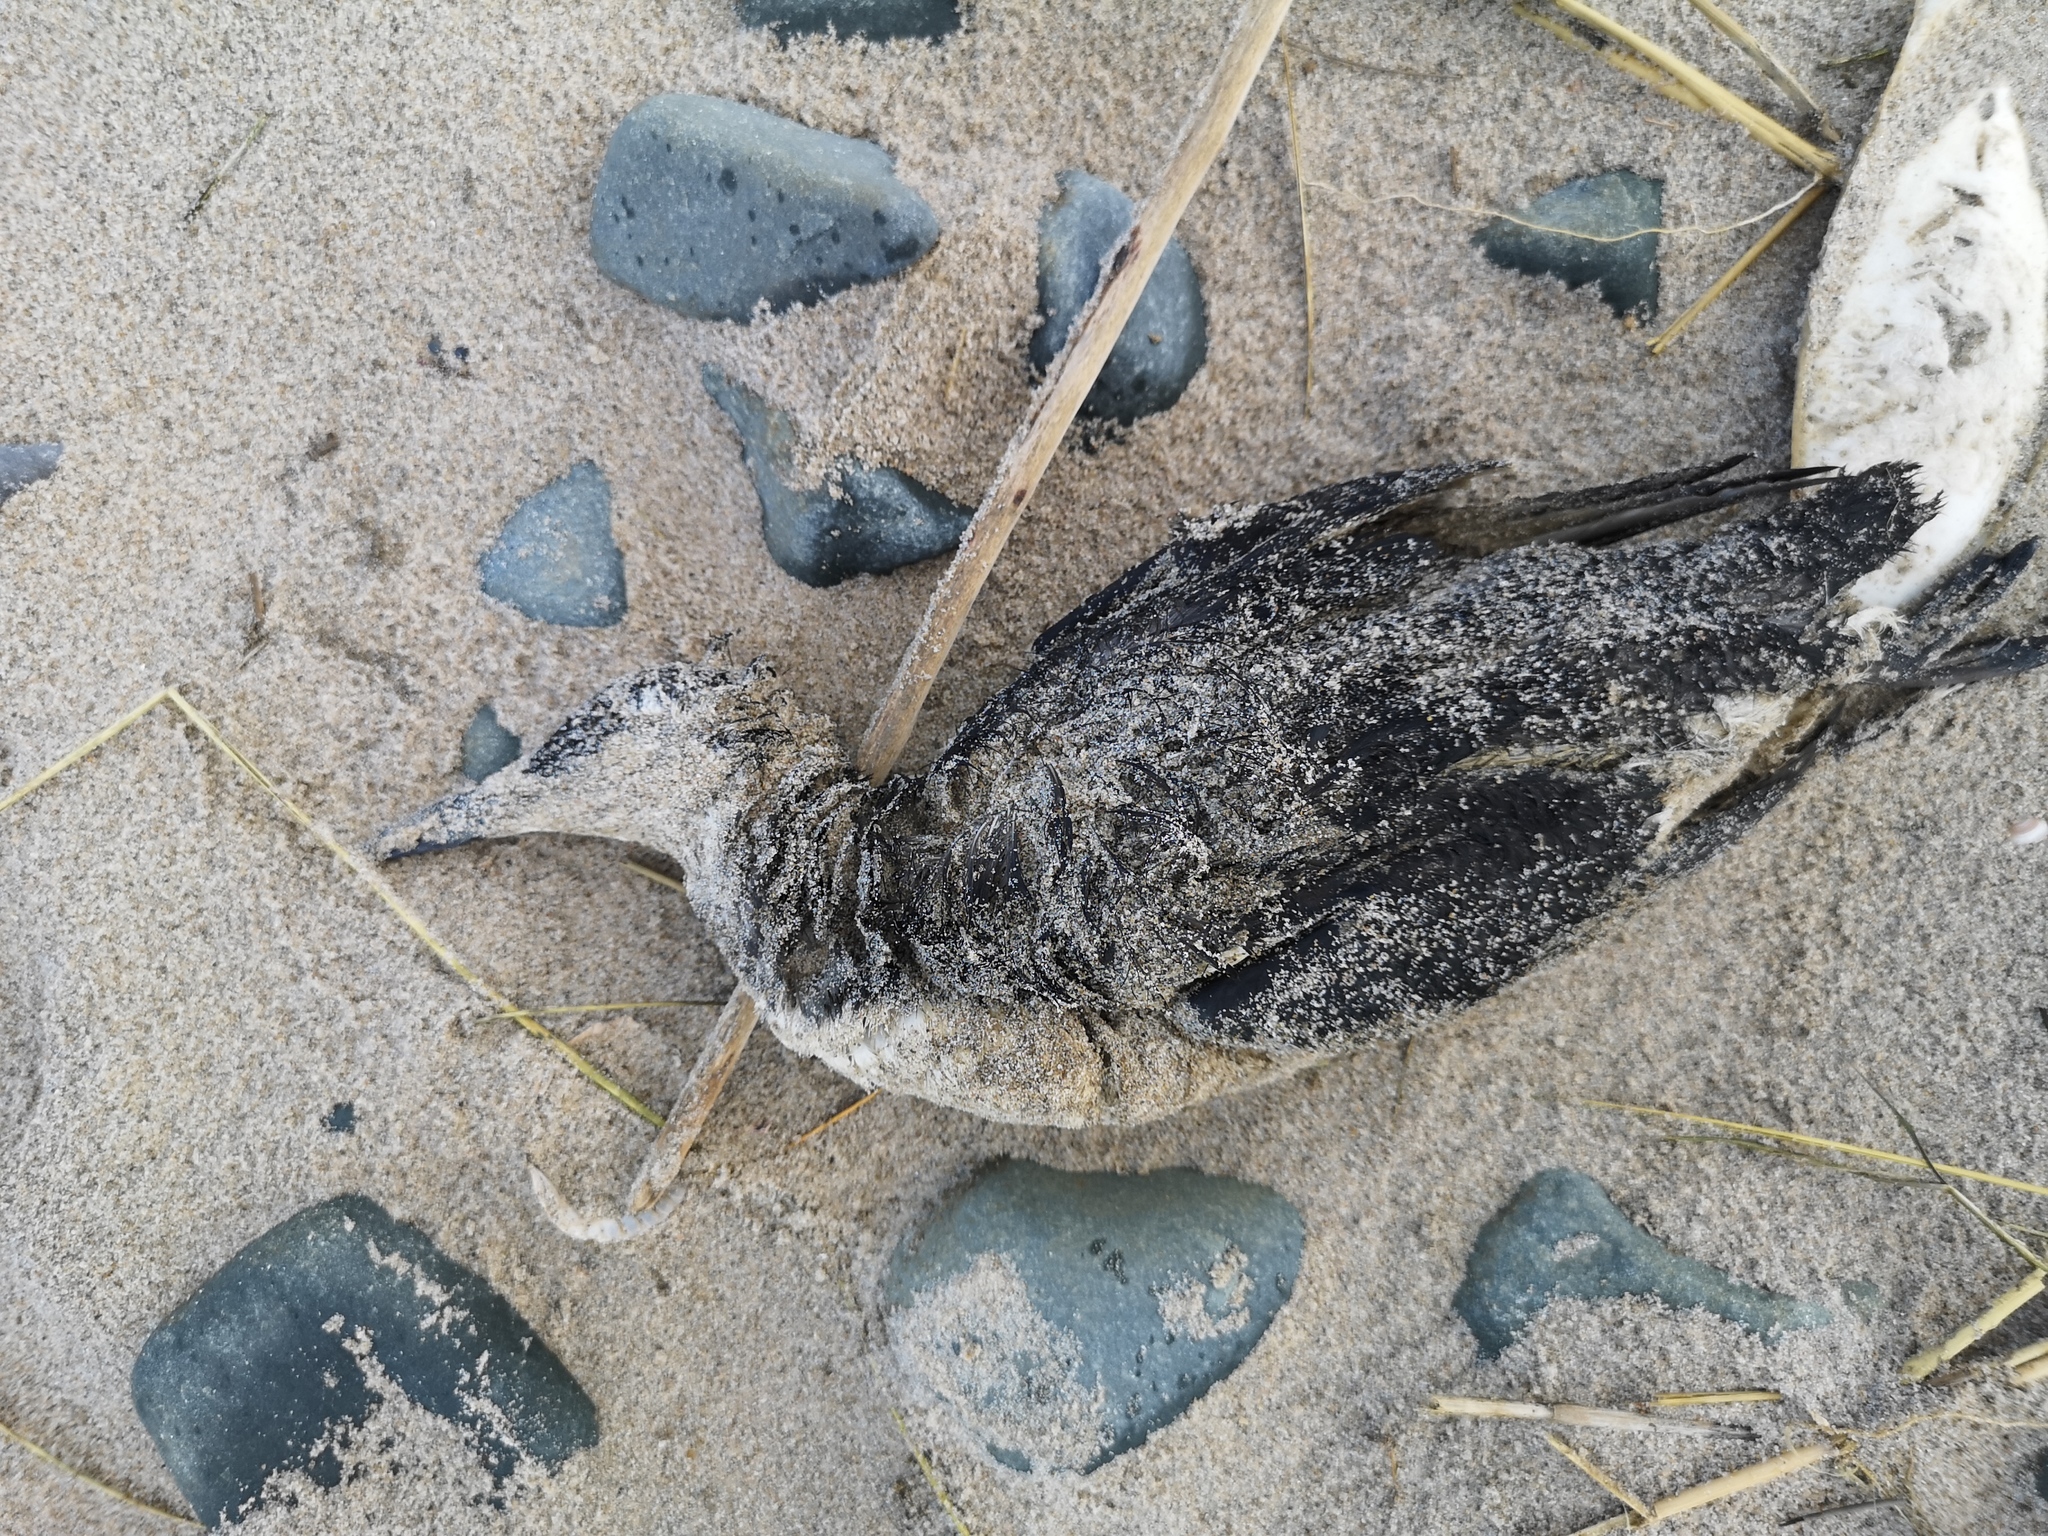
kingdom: Animalia
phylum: Chordata
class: Aves
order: Charadriiformes
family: Alcidae
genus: Uria
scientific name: Uria aalge
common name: Common murre
